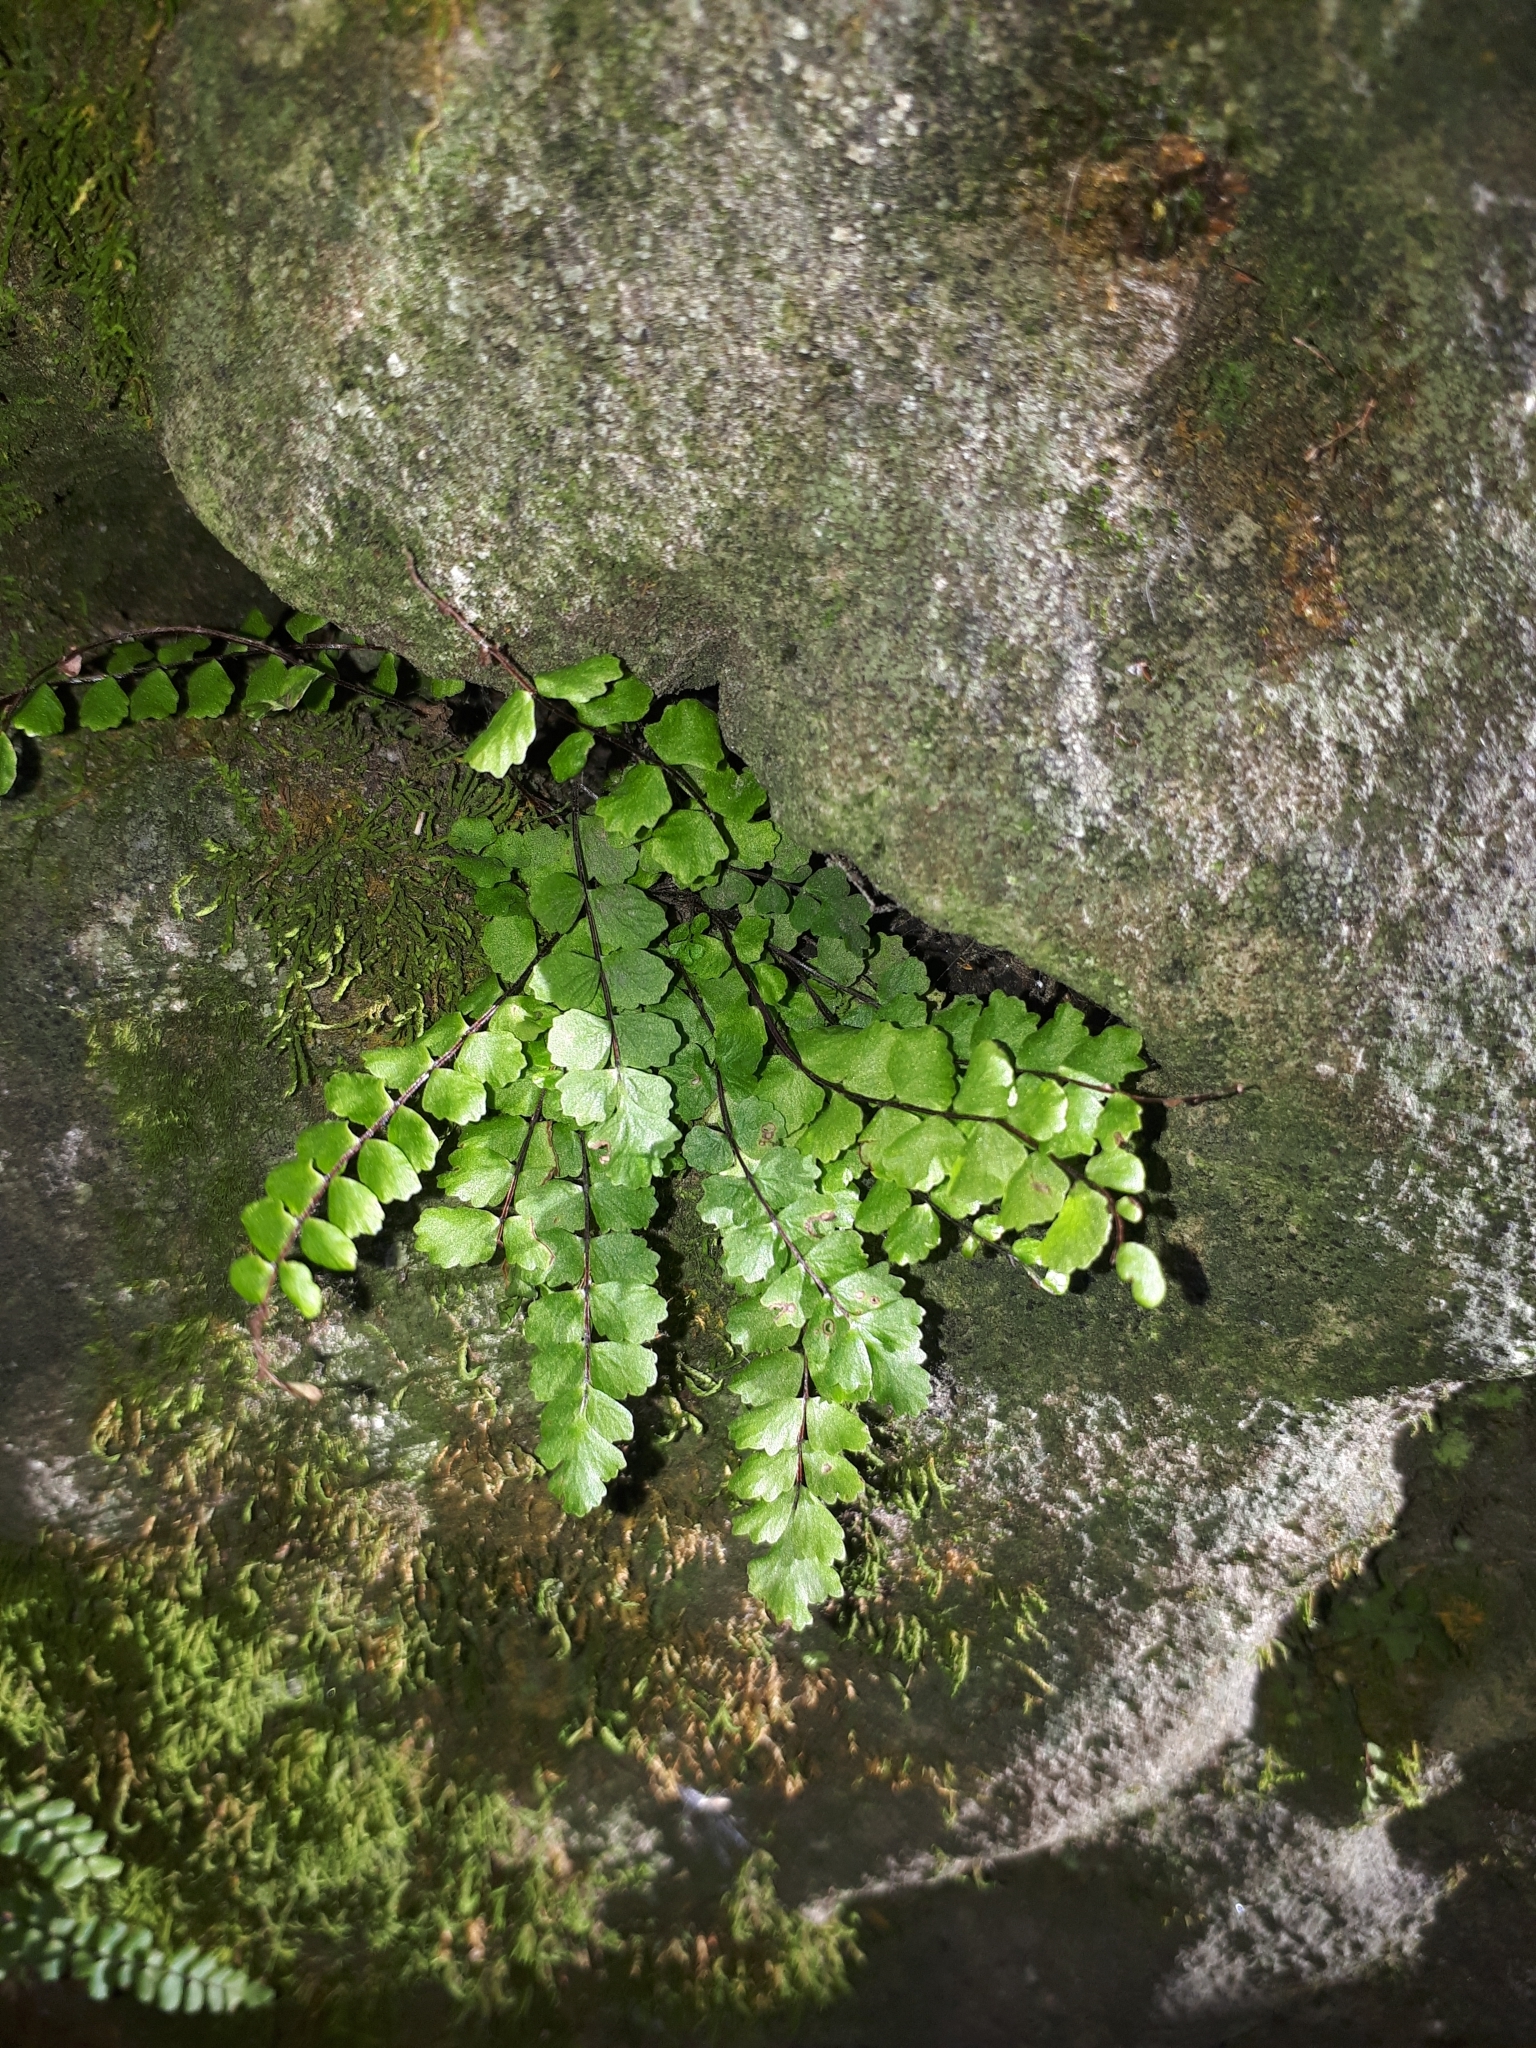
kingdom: Plantae
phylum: Tracheophyta
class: Polypodiopsida
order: Polypodiales
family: Aspleniaceae
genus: Asplenium
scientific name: Asplenium trichomanes
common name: Maidenhair spleenwort
